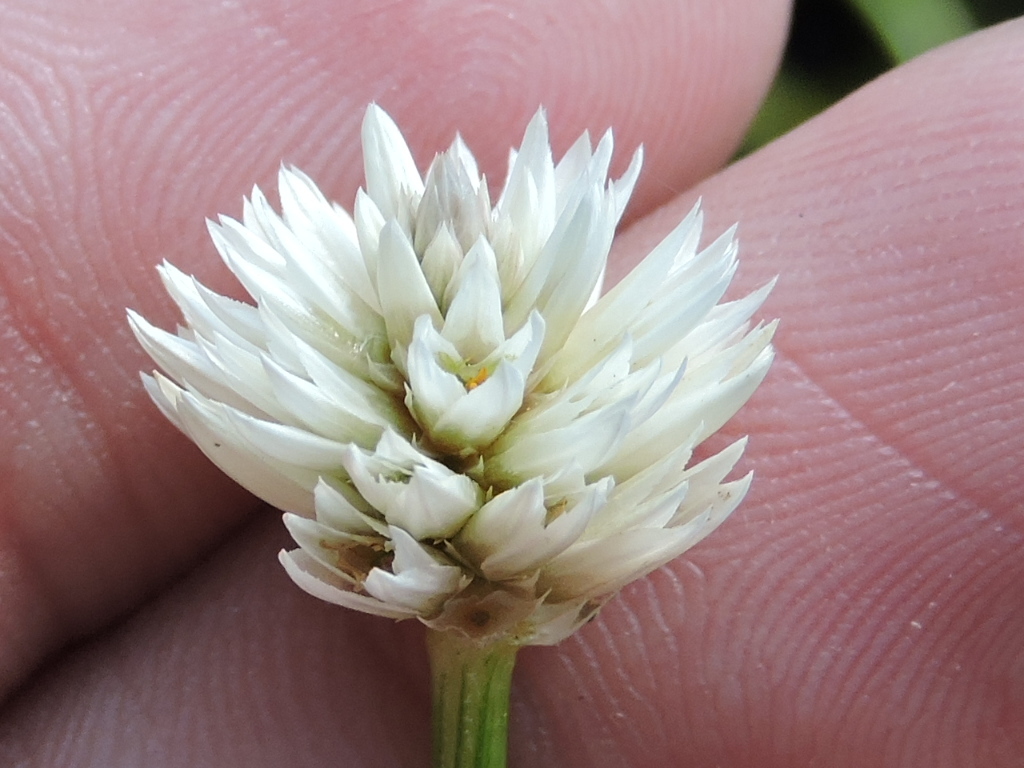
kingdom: Plantae
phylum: Tracheophyta
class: Magnoliopsida
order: Caryophyllales
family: Amaranthaceae
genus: Alternanthera
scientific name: Alternanthera philoxeroides
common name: Alligatorweed
